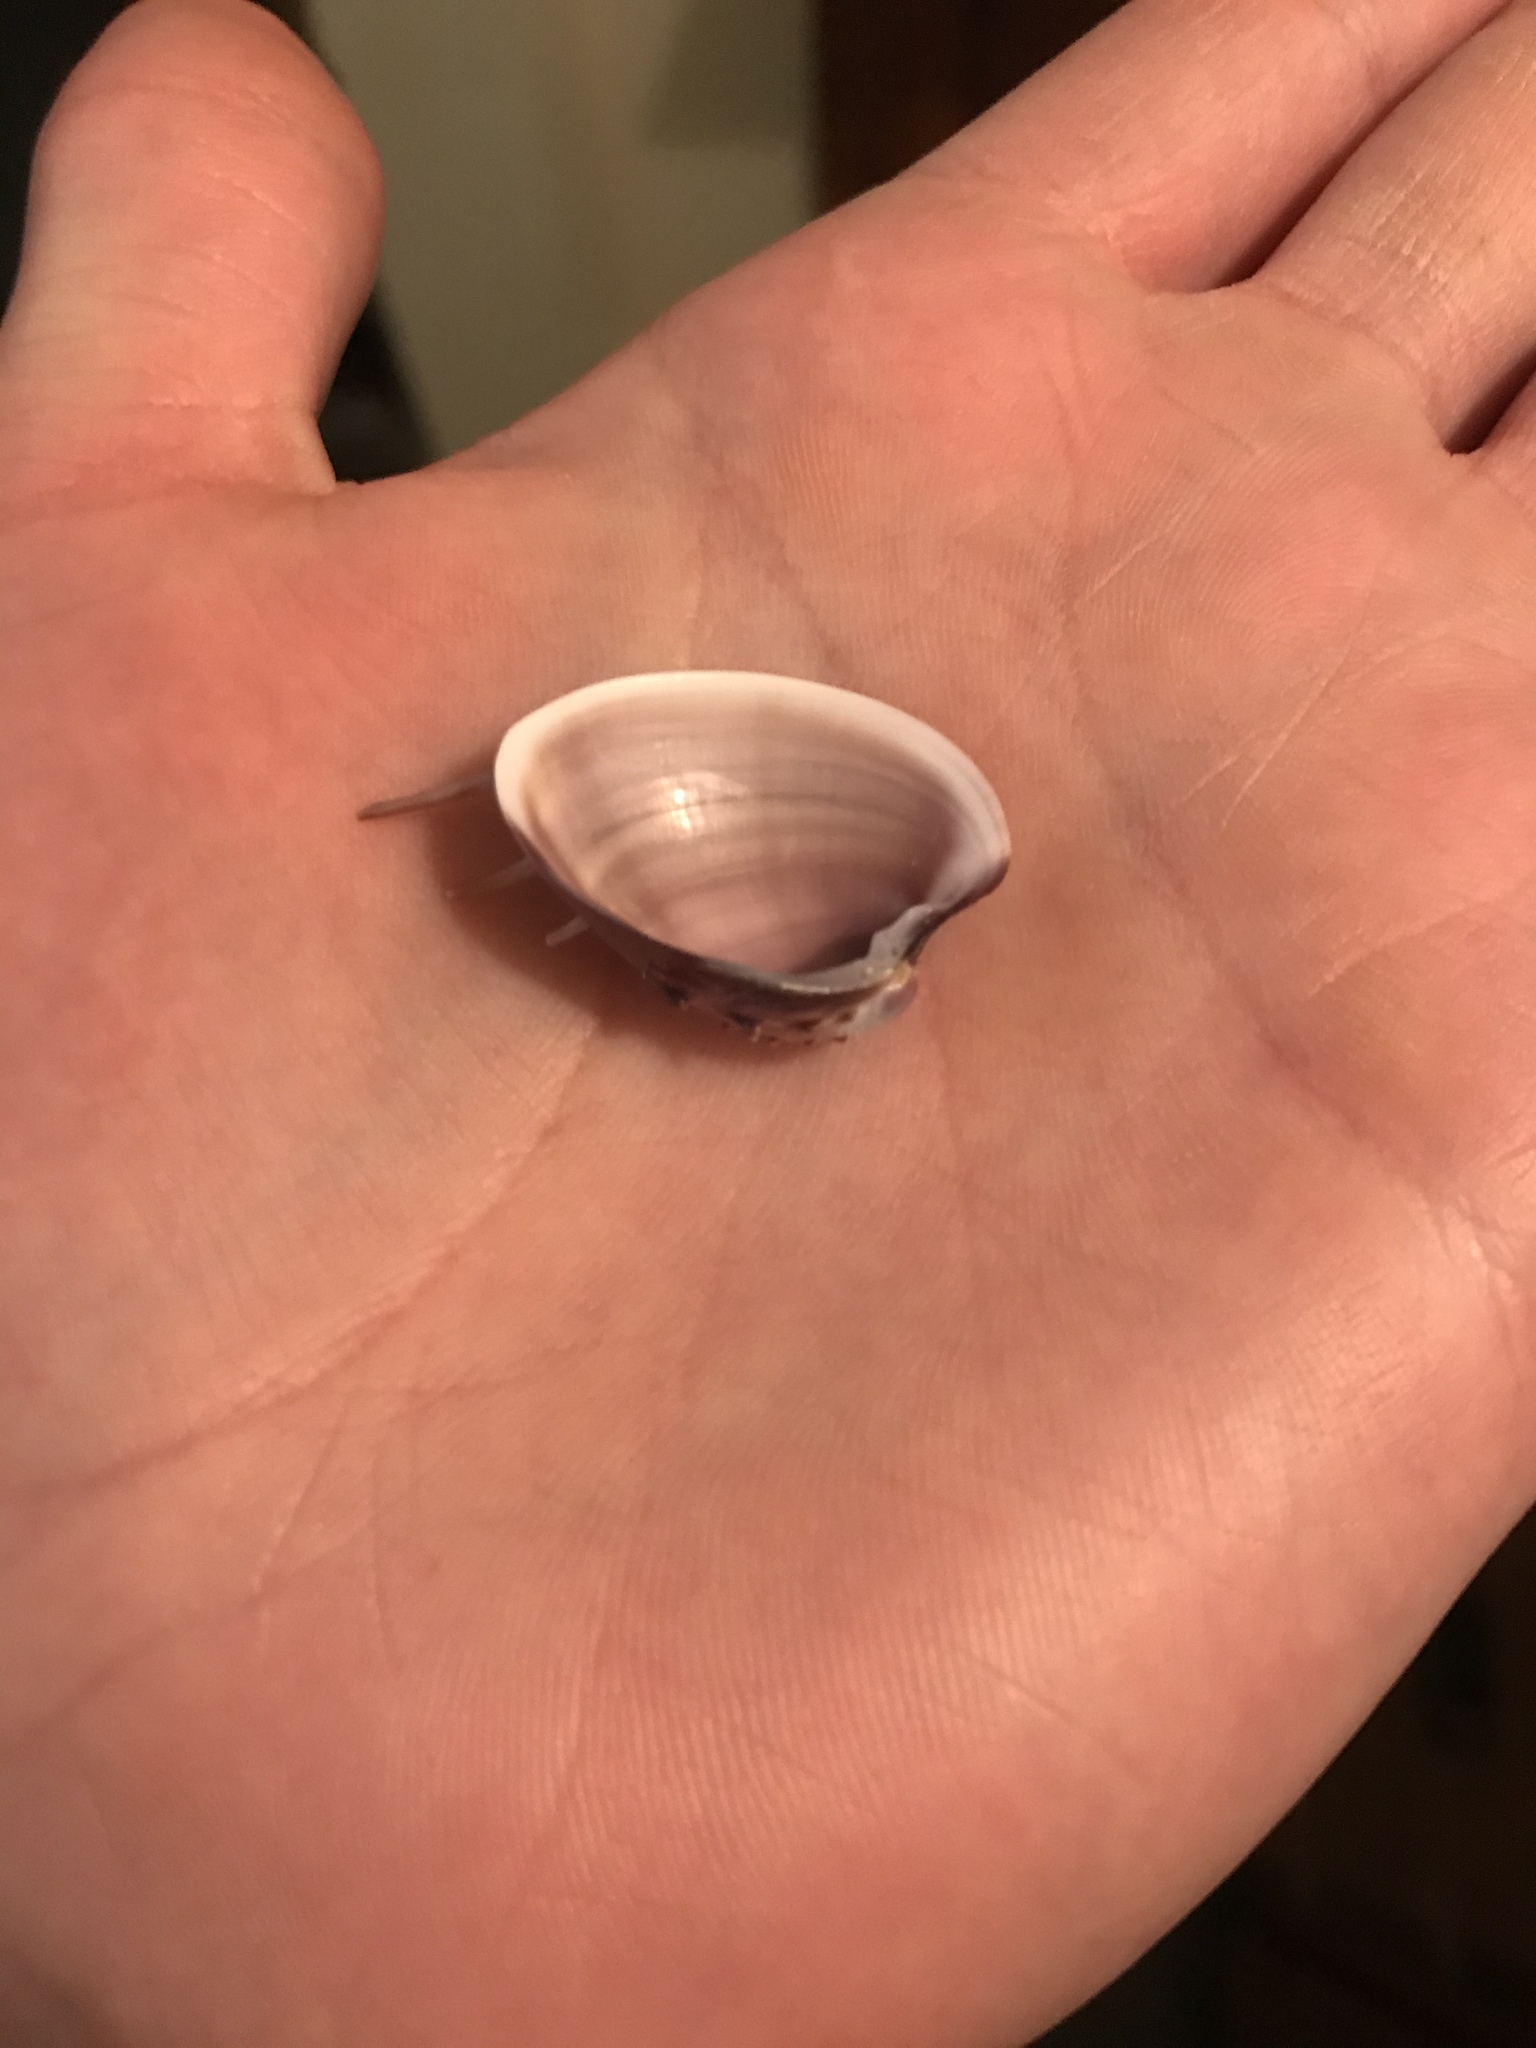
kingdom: Animalia
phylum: Mollusca
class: Bivalvia
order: Venerida
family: Veneridae
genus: Hysteroconcha
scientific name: Hysteroconcha lupanaria
